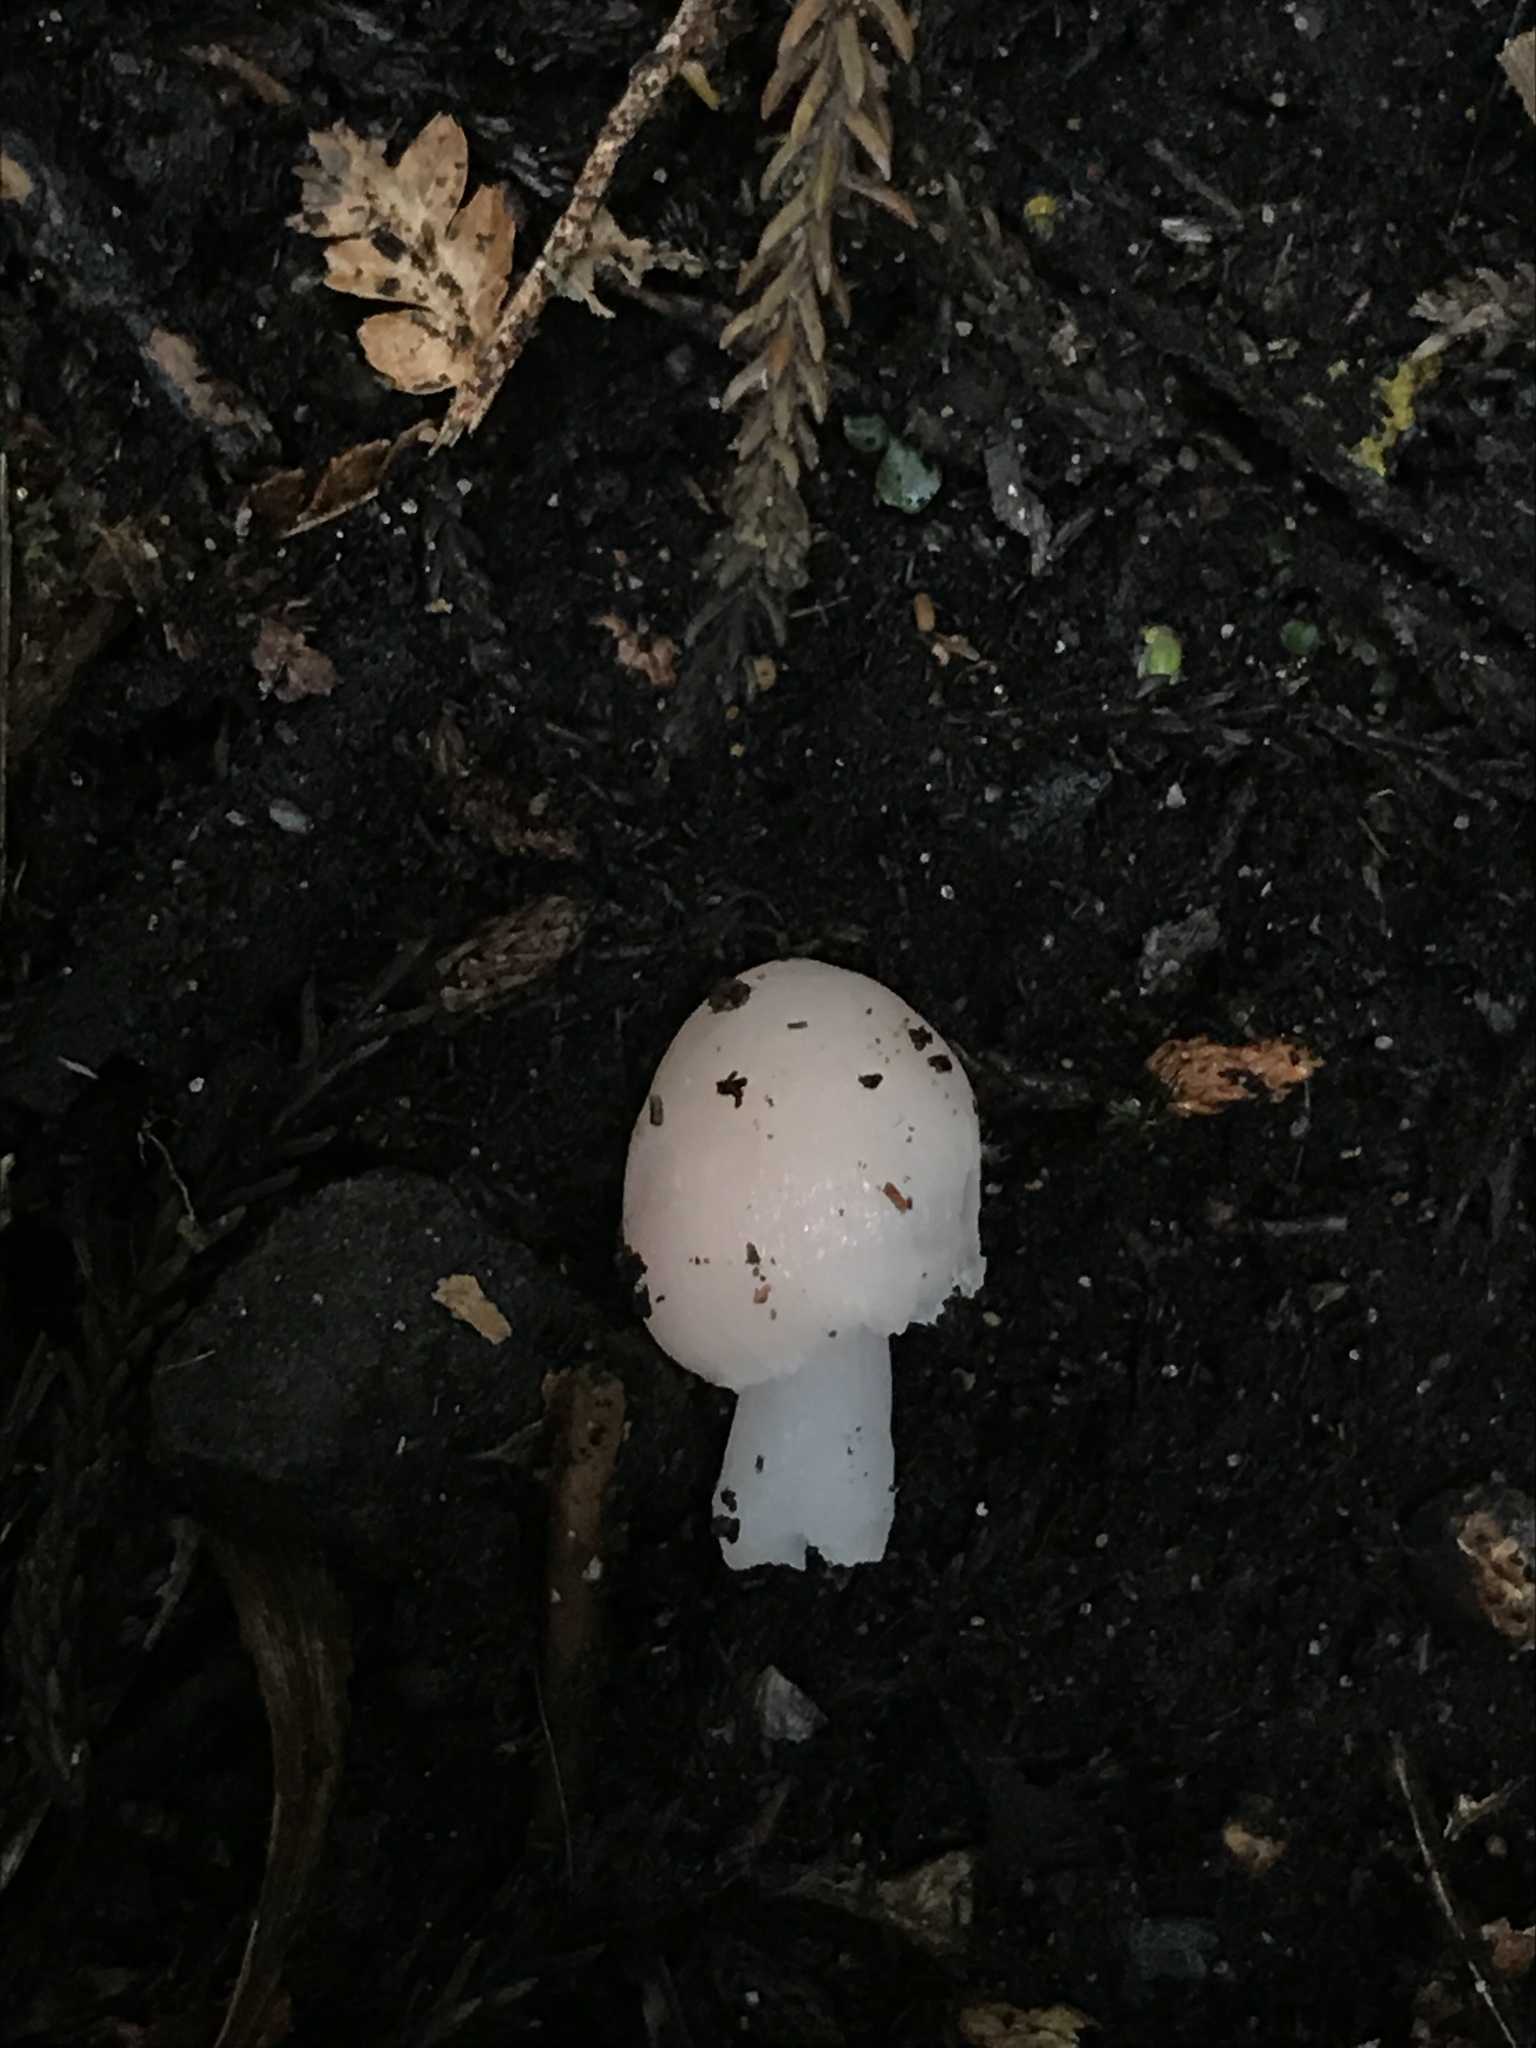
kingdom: Fungi
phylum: Basidiomycota
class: Agaricomycetes
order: Agaricales
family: Hygrophoraceae
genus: Humidicutis
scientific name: Humidicutis
